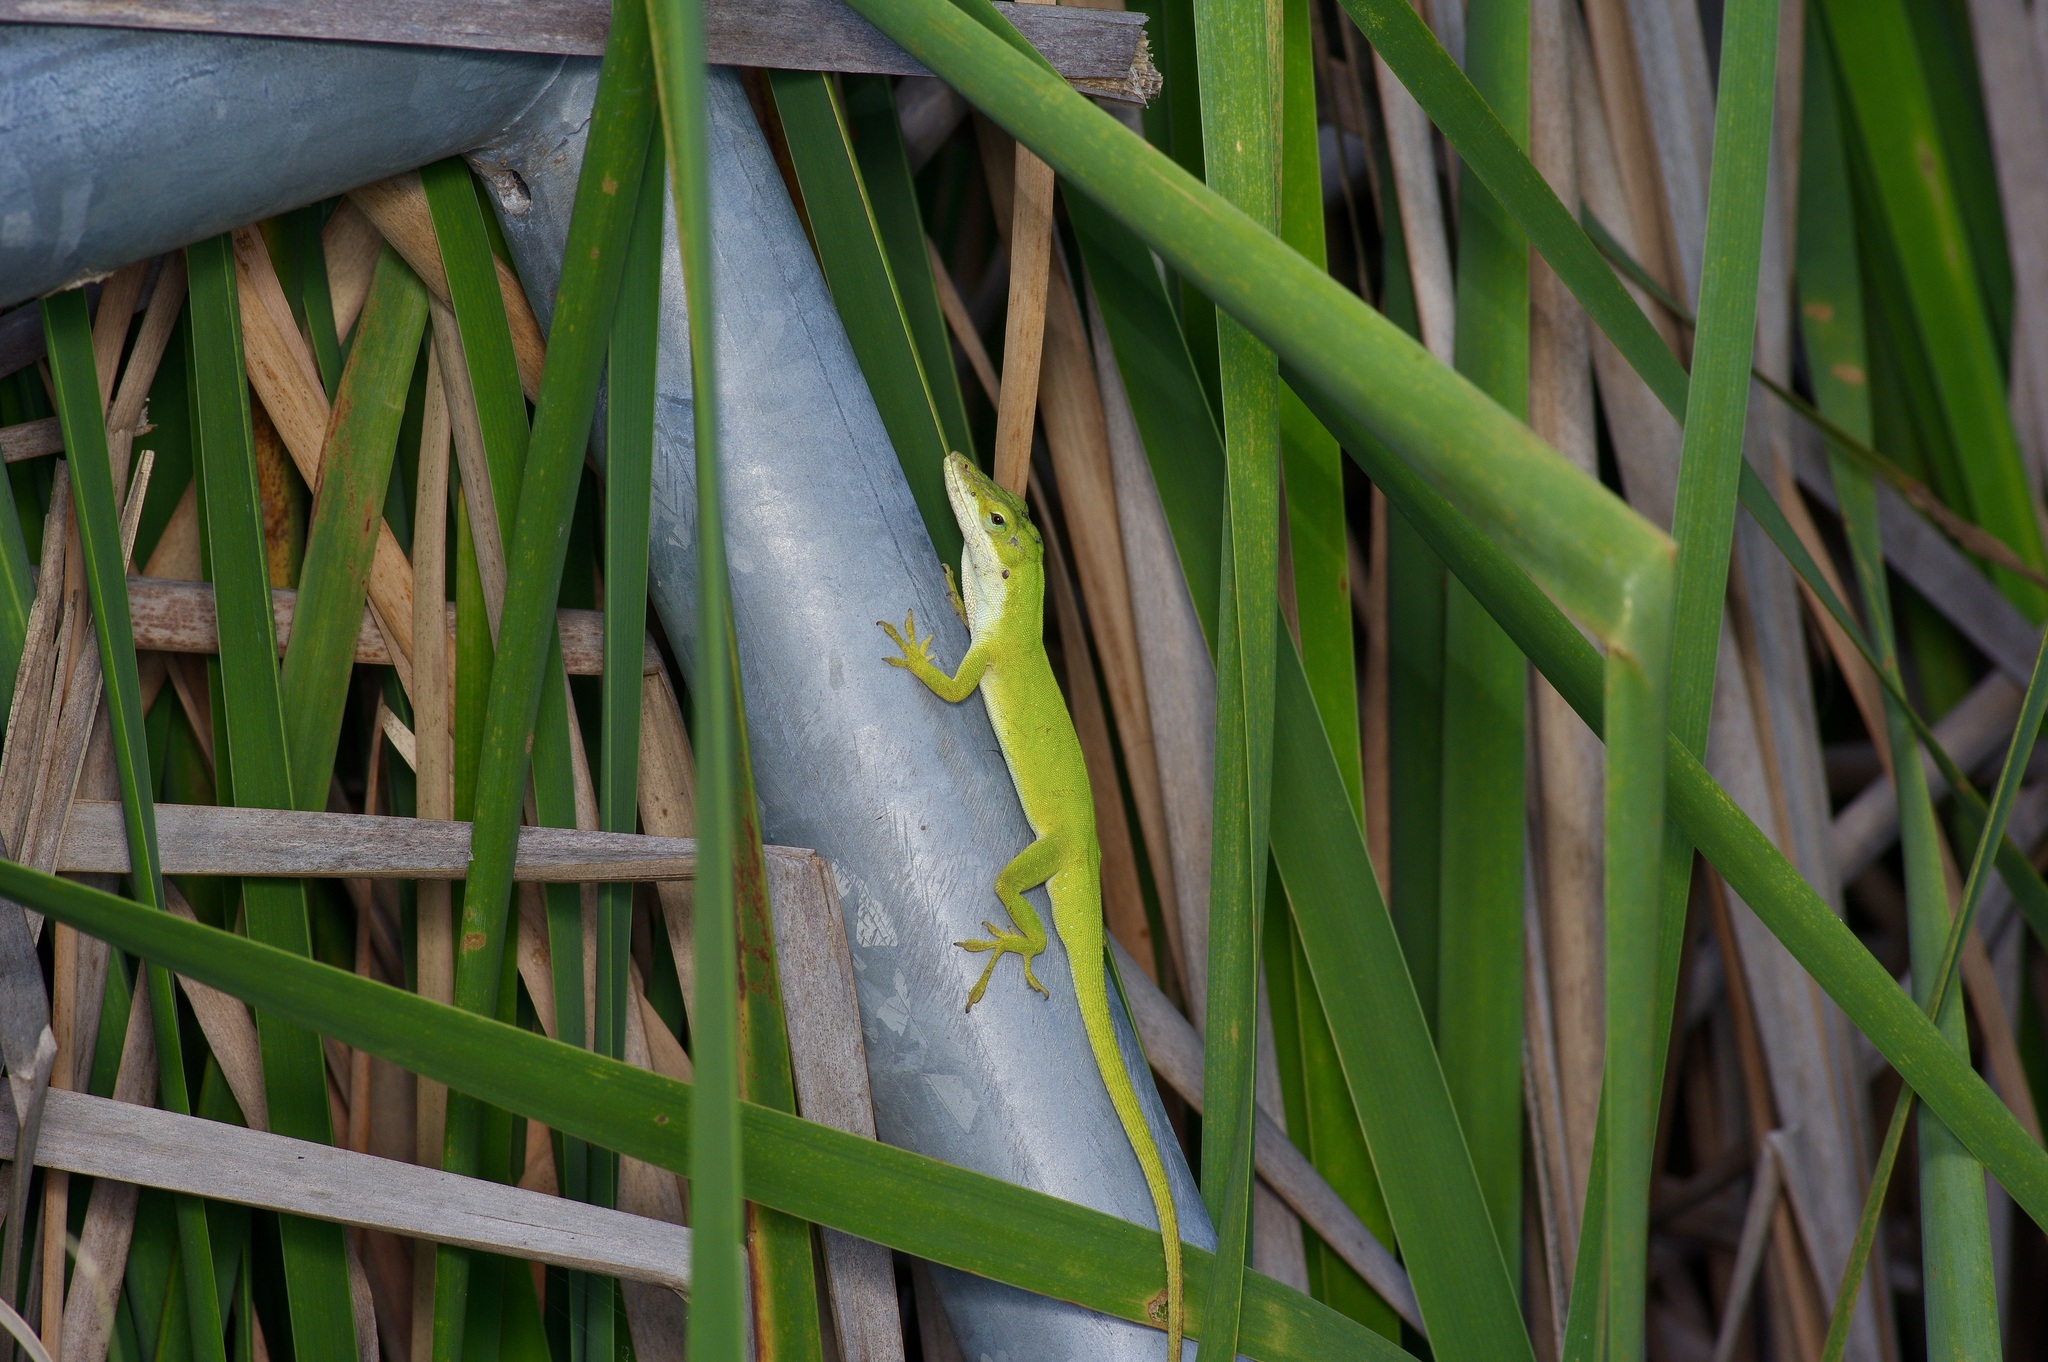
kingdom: Animalia
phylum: Chordata
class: Squamata
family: Dactyloidae
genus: Anolis
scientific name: Anolis carolinensis
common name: Green anole
